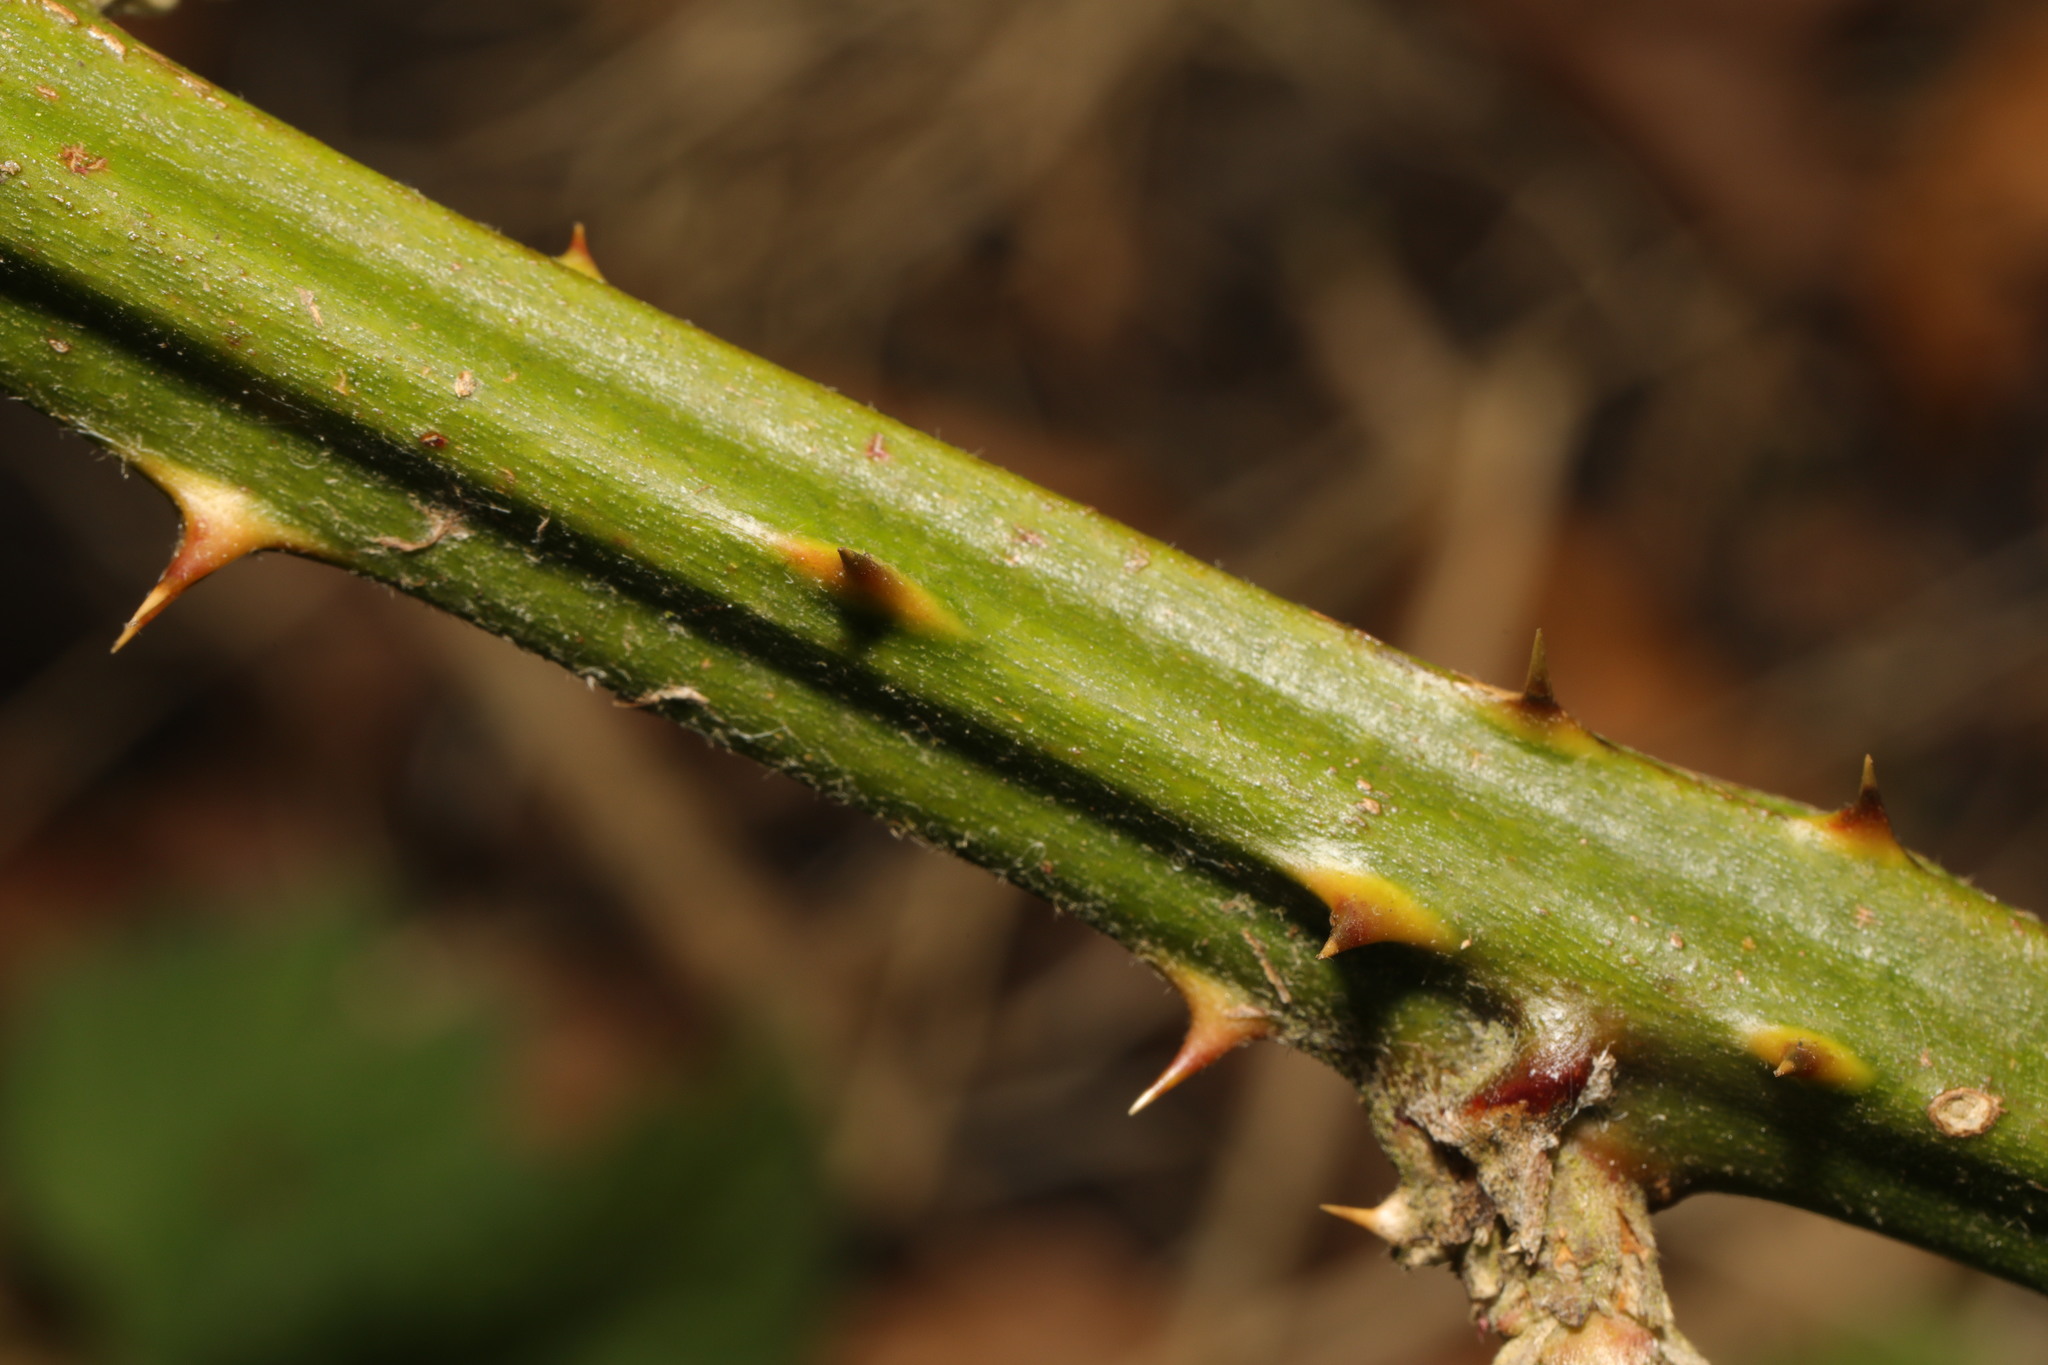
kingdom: Plantae
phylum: Tracheophyta
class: Magnoliopsida
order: Rosales
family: Rosaceae
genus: Rubus
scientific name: Rubus armeniacus
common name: Himalayan blackberry
